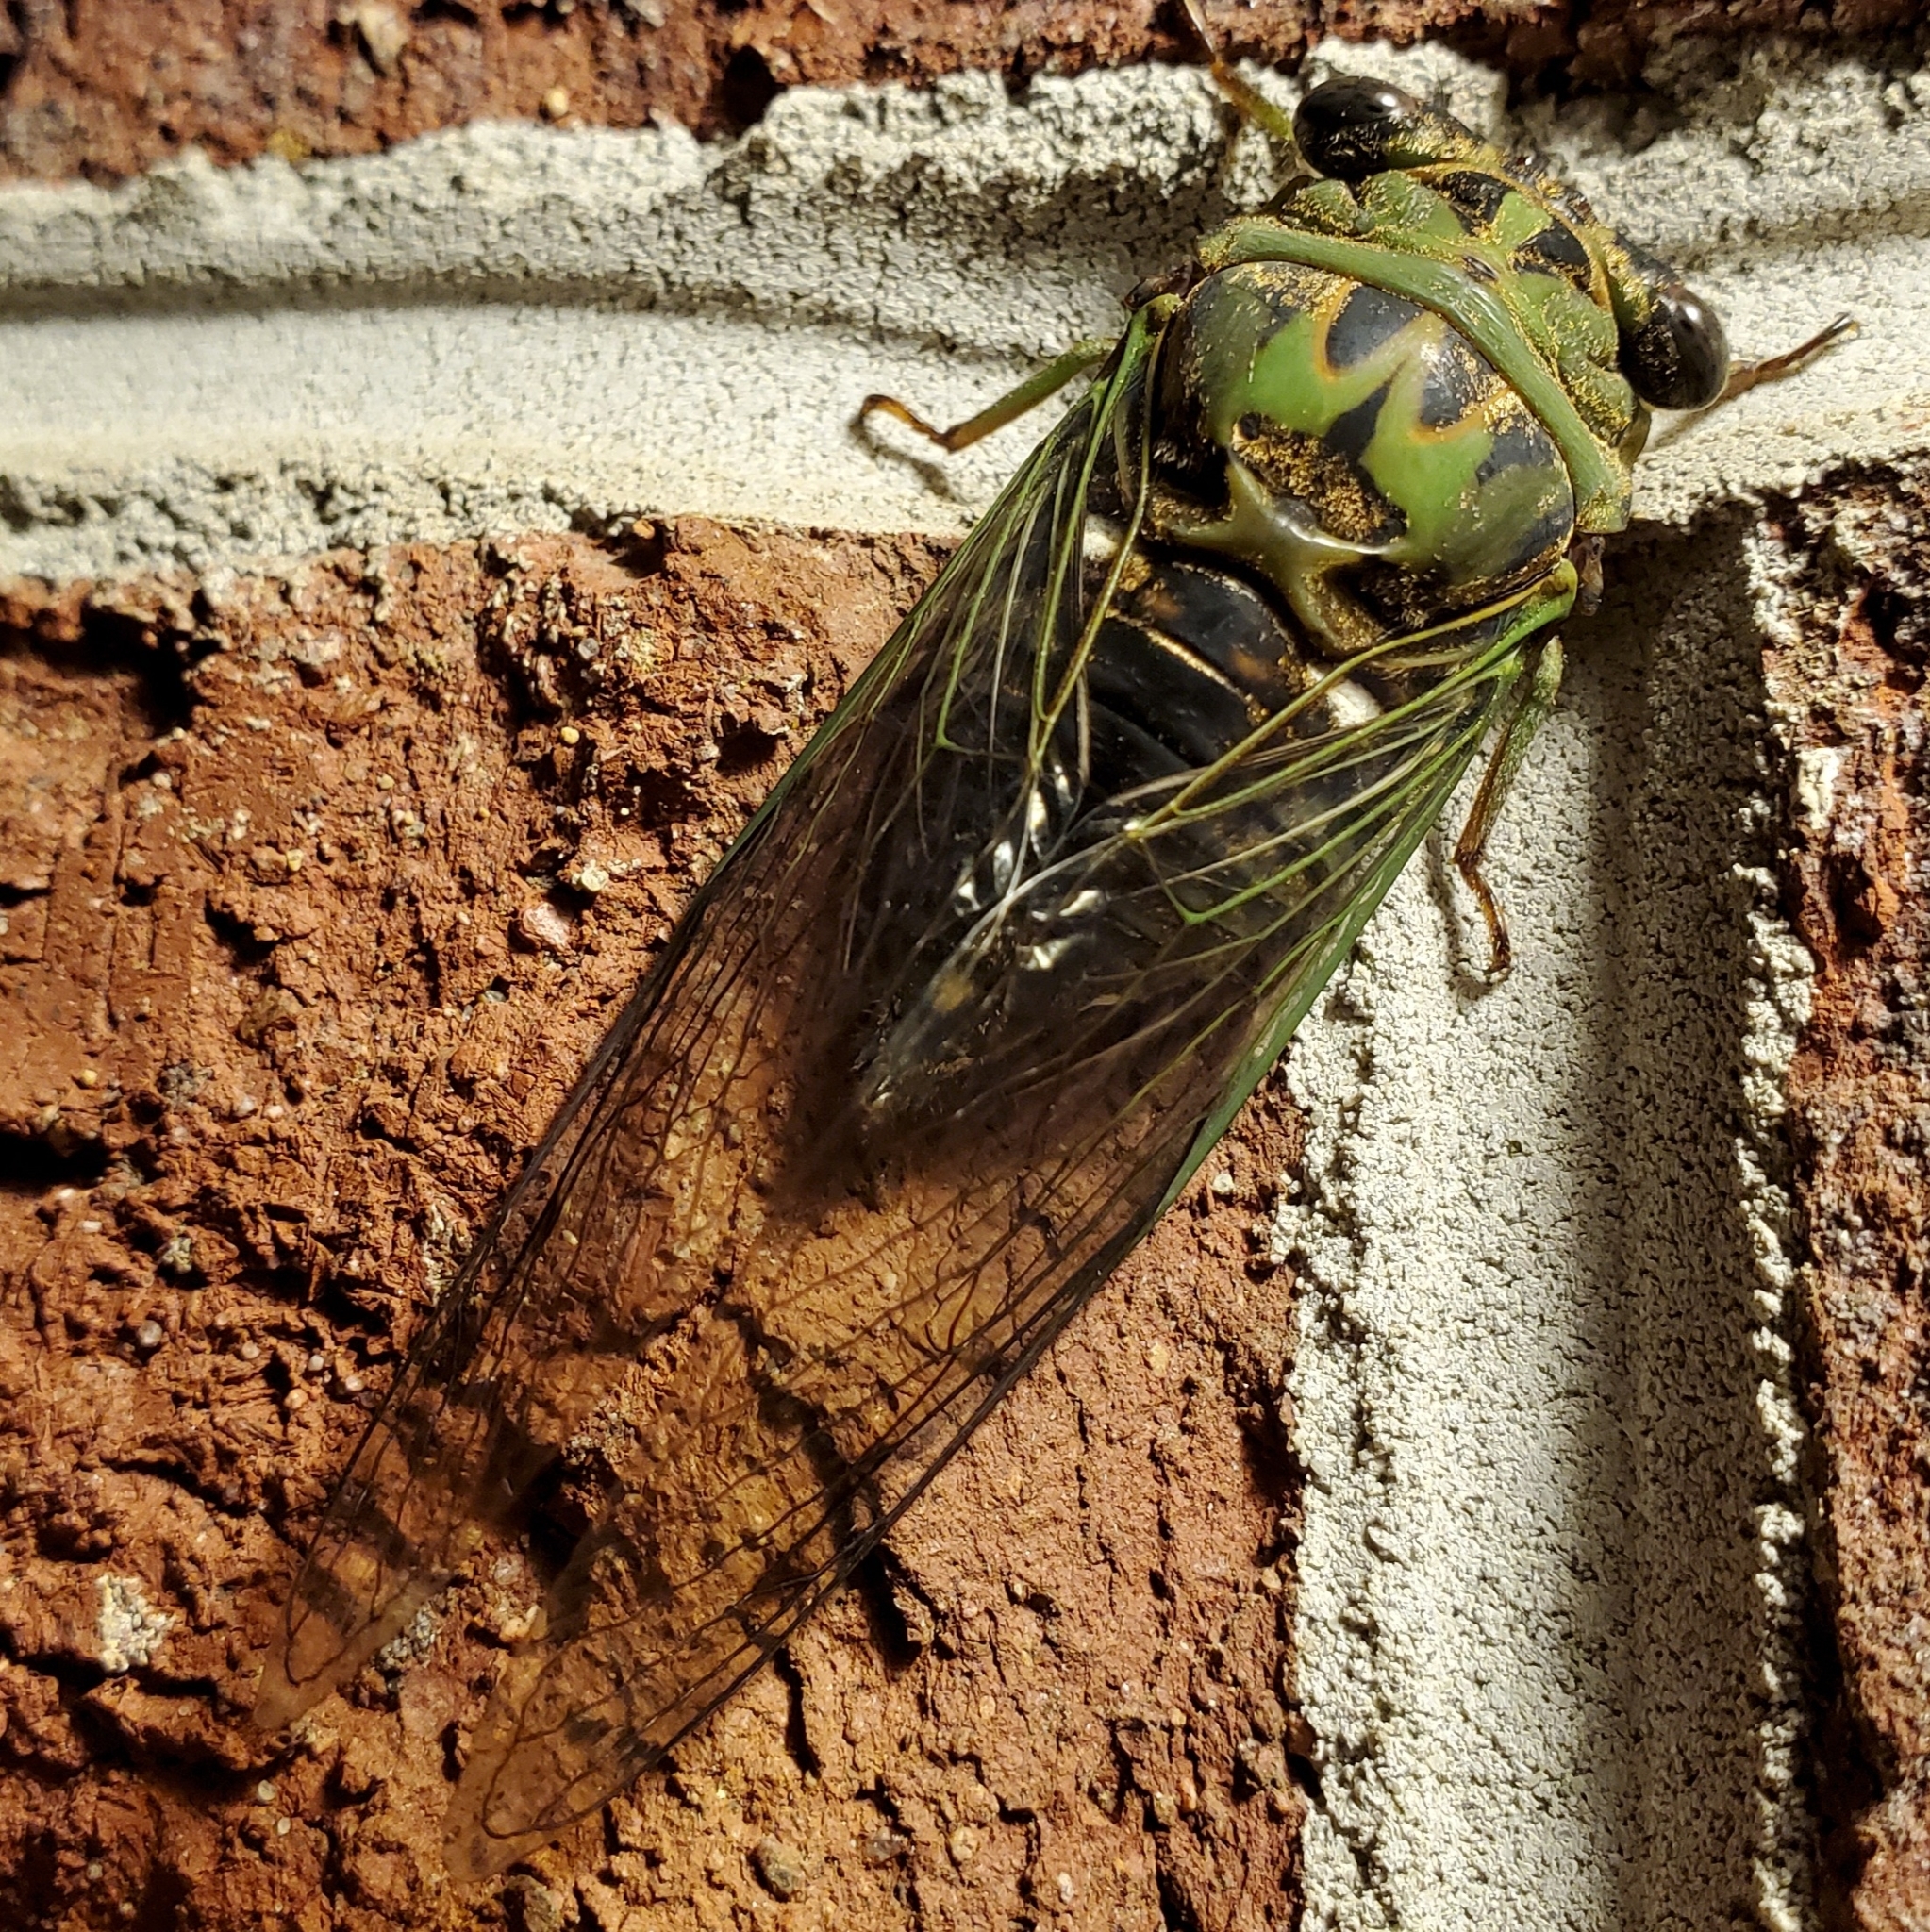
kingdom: Animalia
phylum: Arthropoda
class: Insecta
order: Hemiptera
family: Cicadidae
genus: Neotibicen
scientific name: Neotibicen pruinosus
